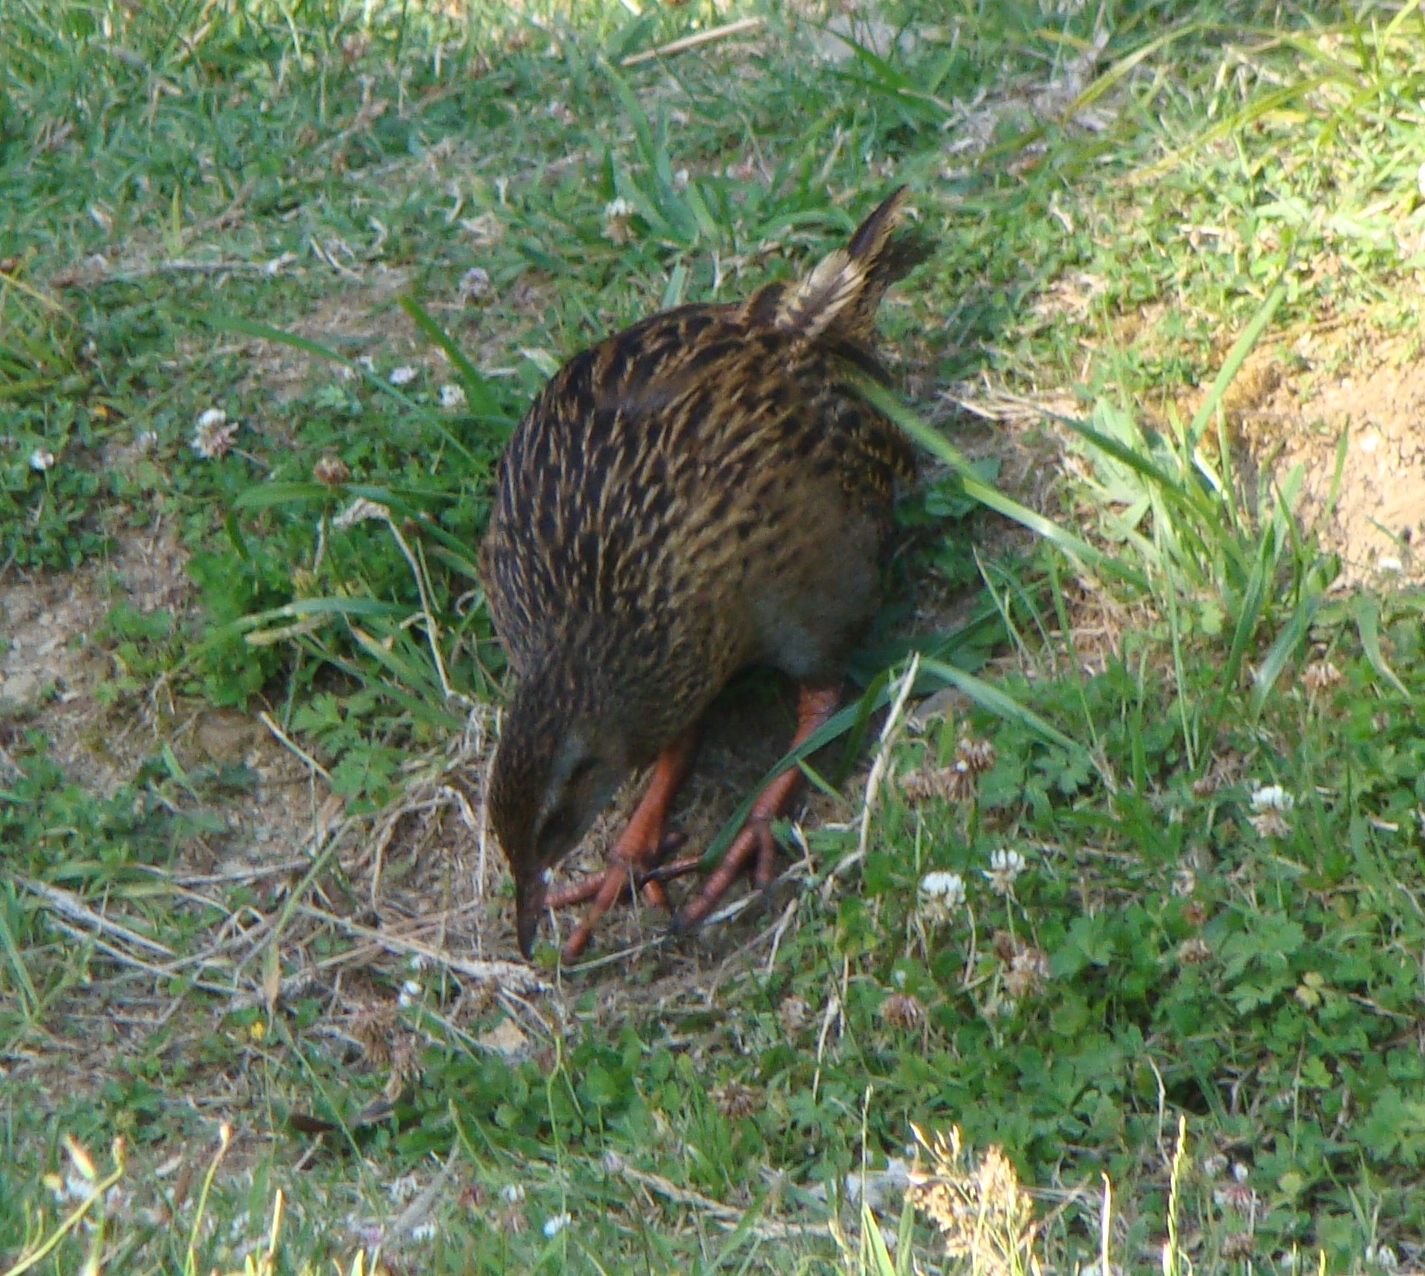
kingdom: Animalia
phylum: Chordata
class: Aves
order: Gruiformes
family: Rallidae
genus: Gallirallus
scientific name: Gallirallus australis
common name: Weka
